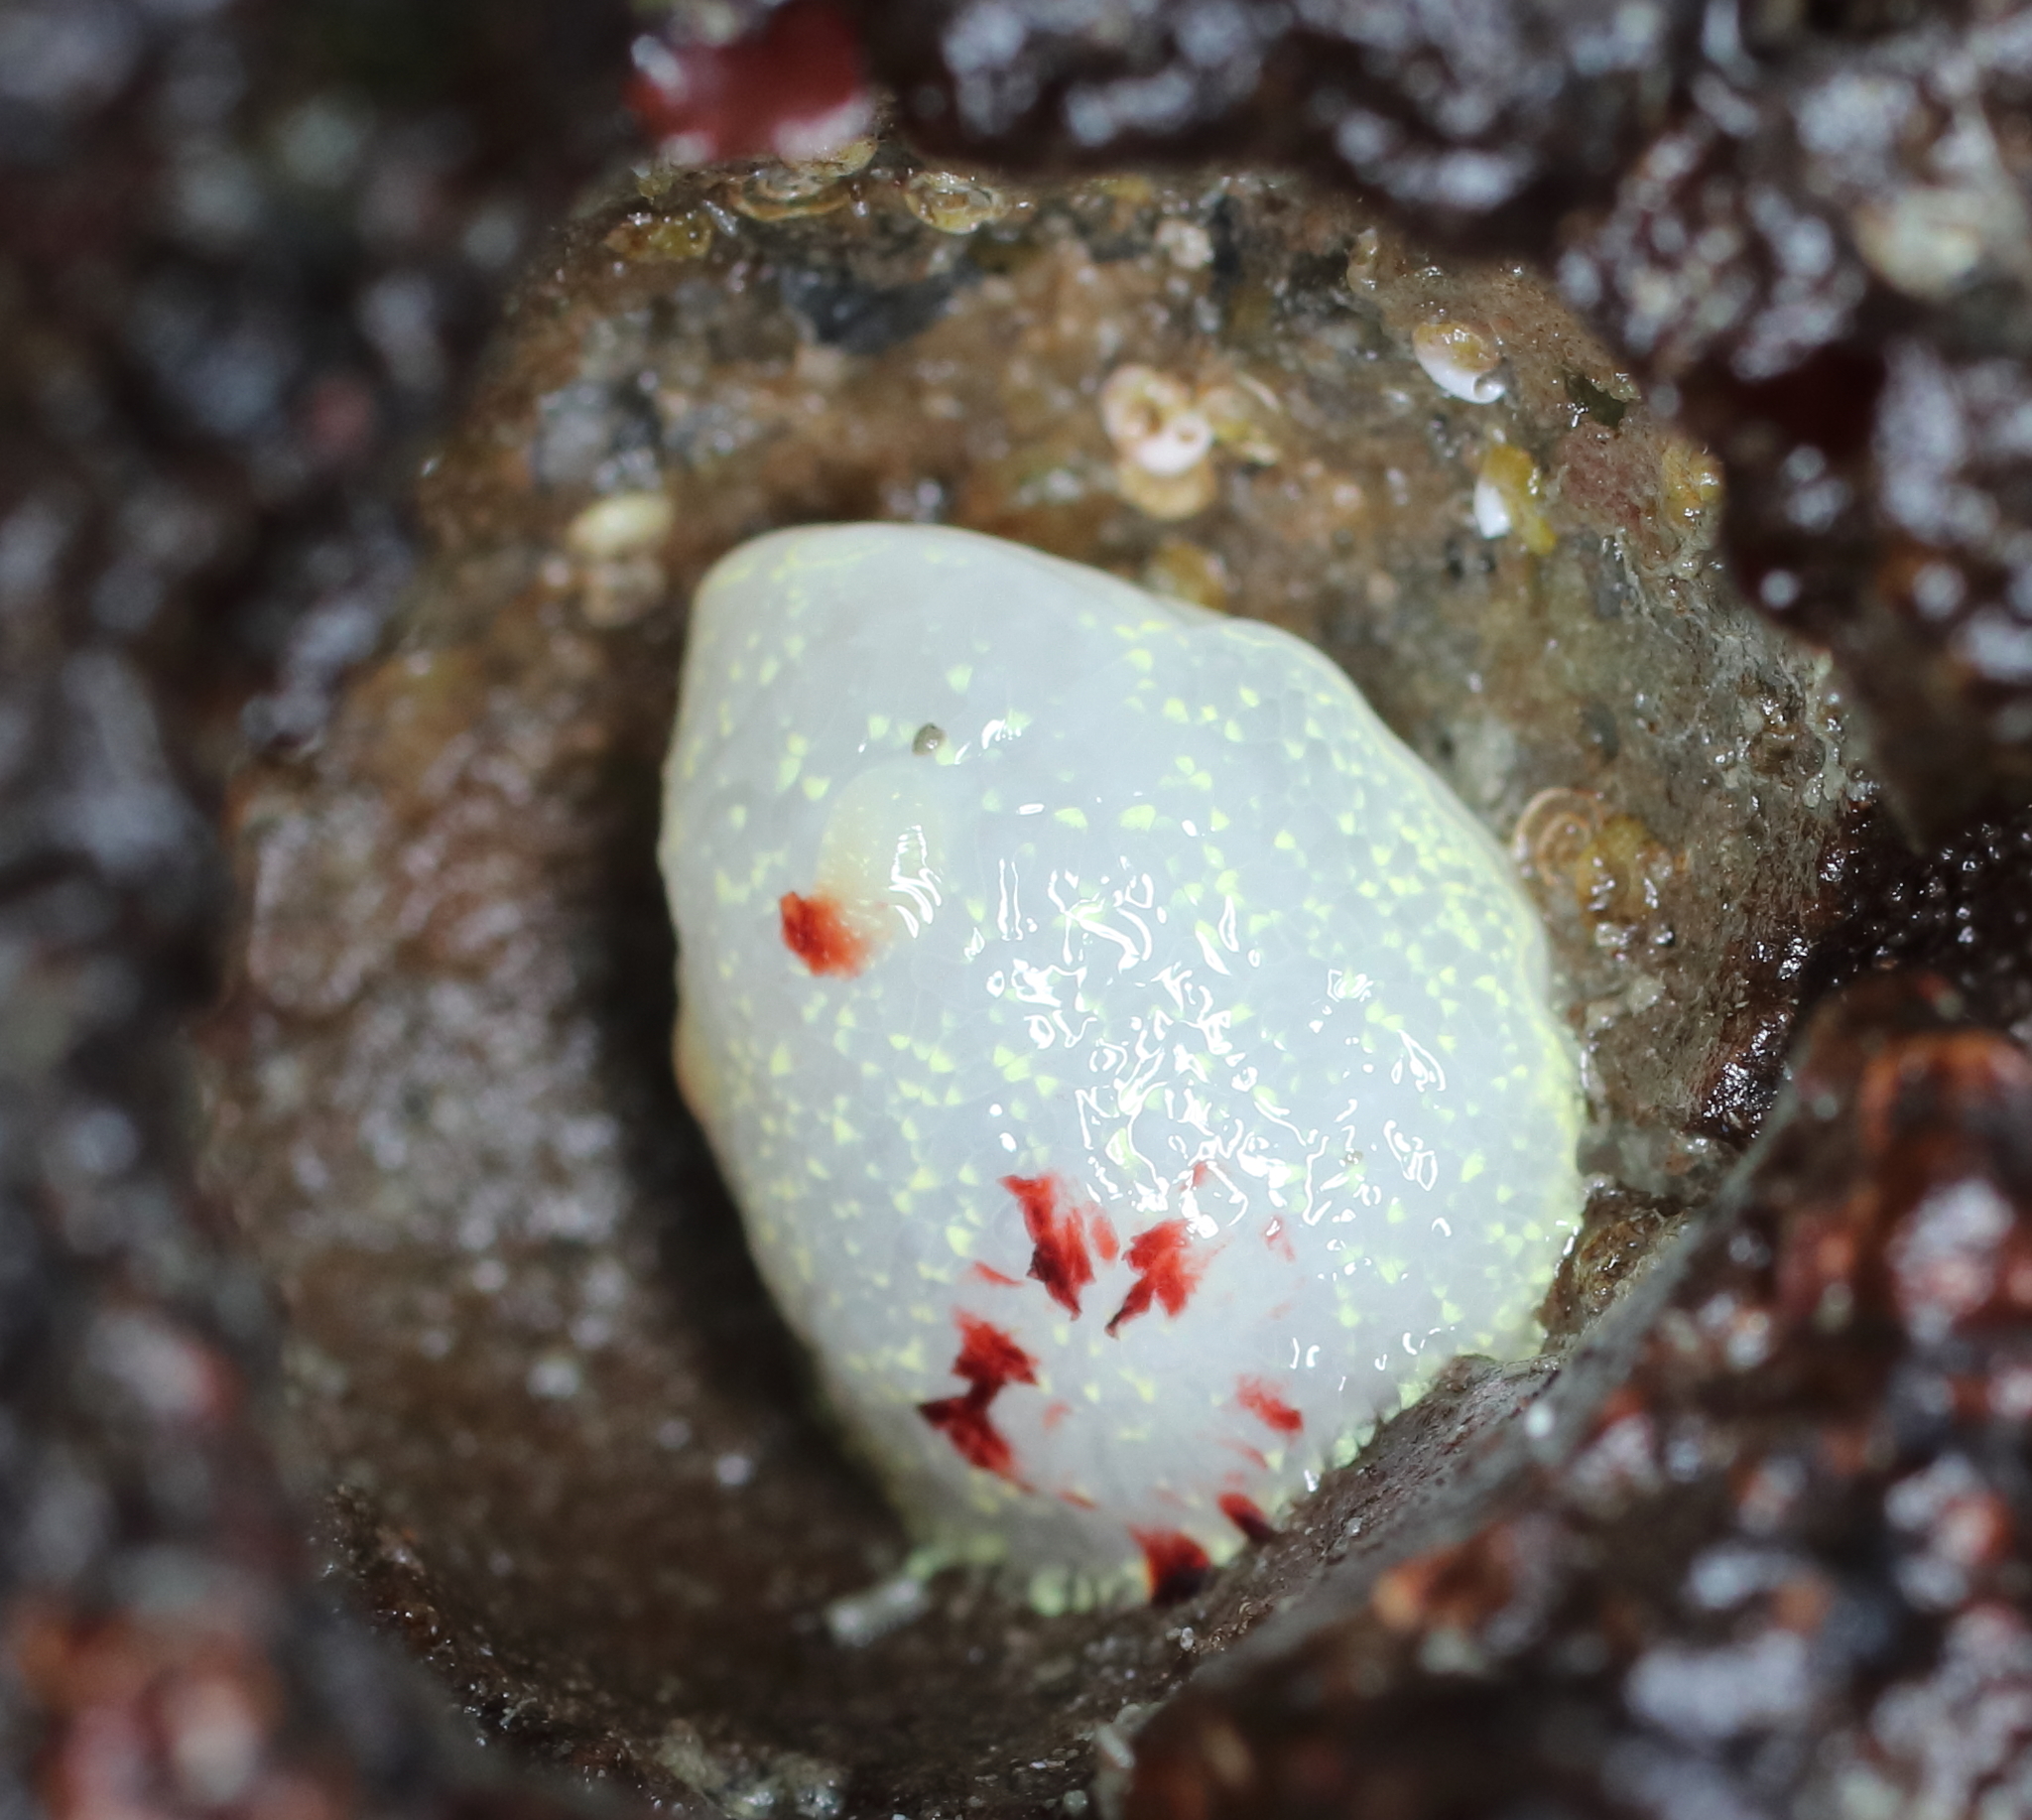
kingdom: Animalia
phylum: Mollusca
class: Gastropoda
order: Nudibranchia
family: Onchidorididae
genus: Acanthodoris
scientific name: Acanthodoris nanaimoensis
